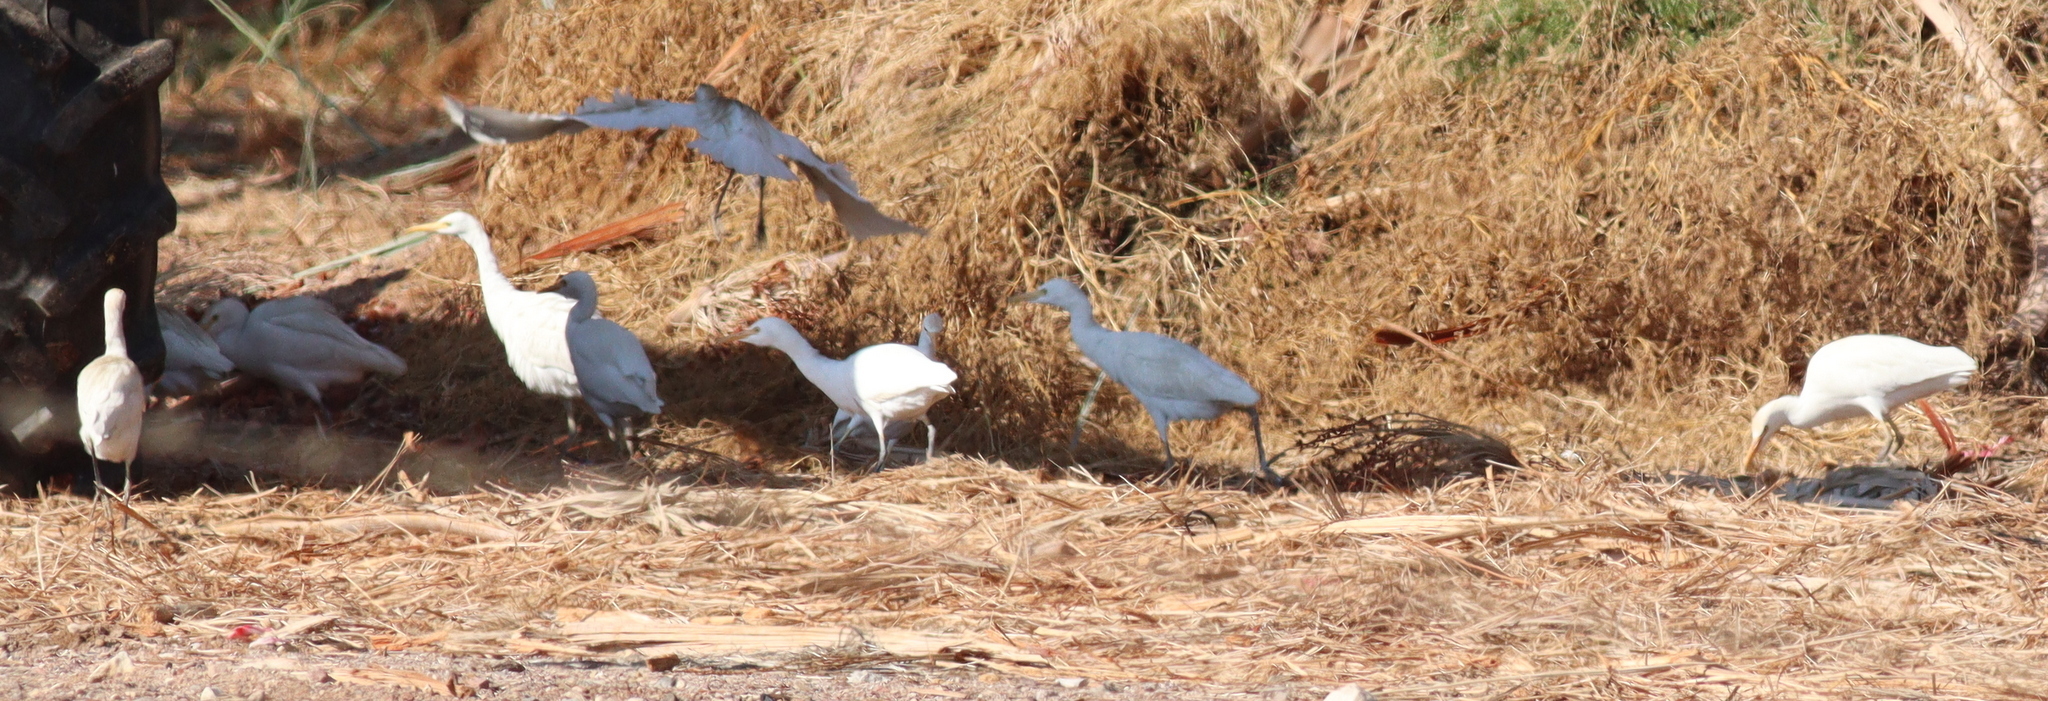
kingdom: Animalia
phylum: Chordata
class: Aves
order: Pelecaniformes
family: Ardeidae
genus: Bubulcus
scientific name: Bubulcus ibis
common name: Cattle egret
